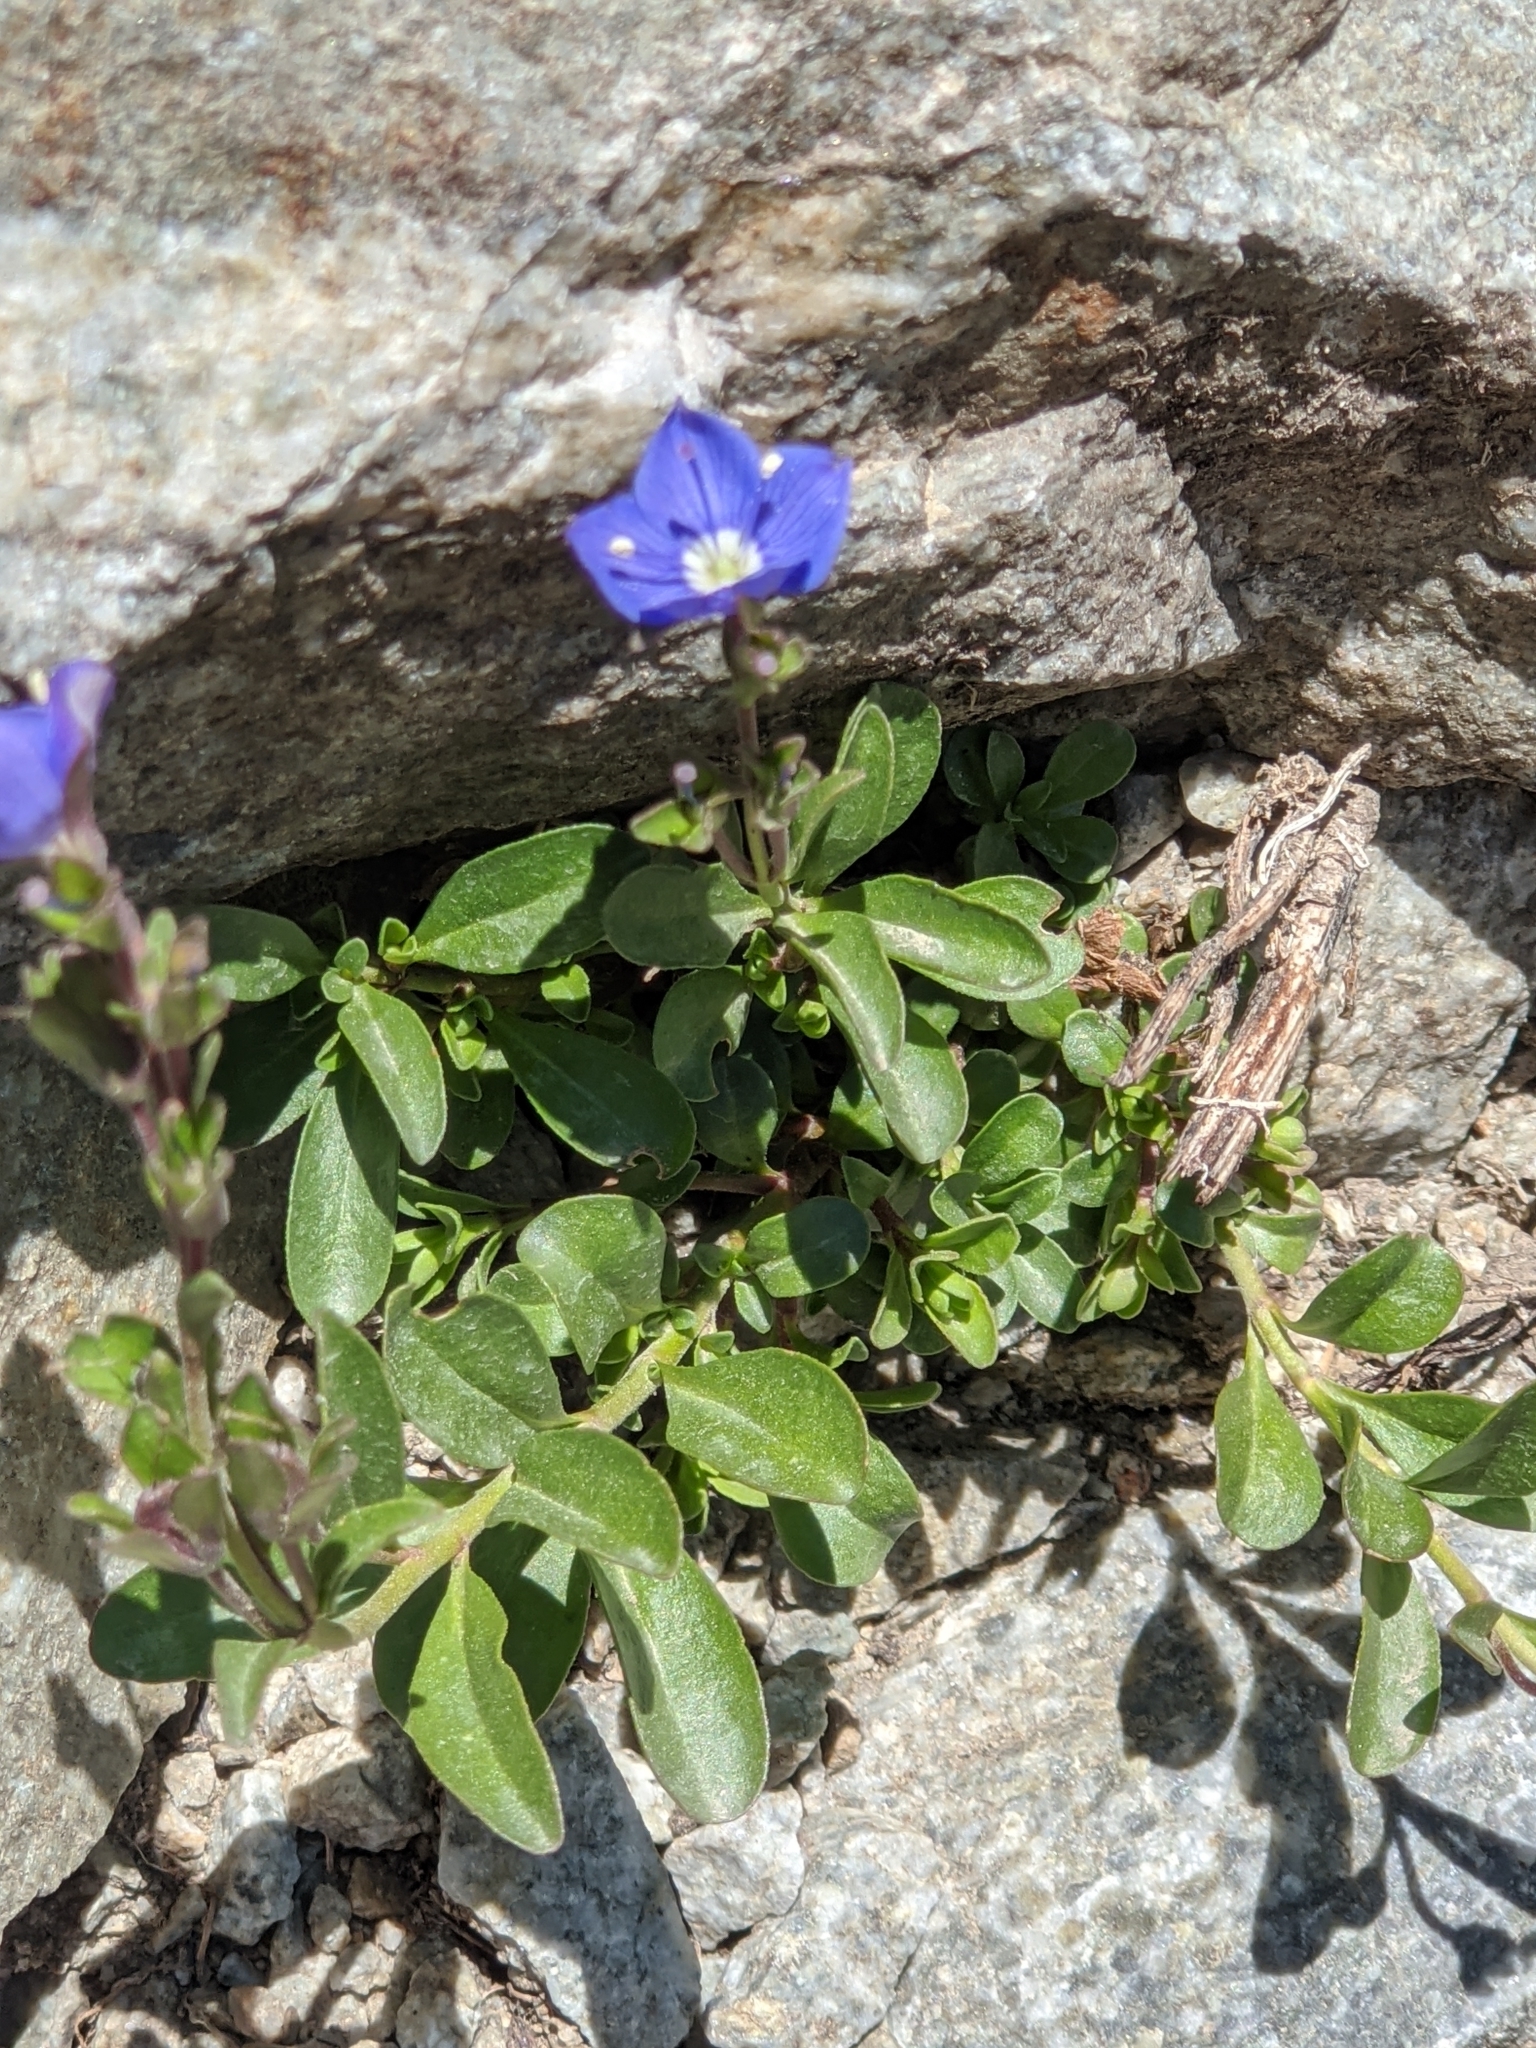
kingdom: Plantae
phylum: Tracheophyta
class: Magnoliopsida
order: Lamiales
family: Plantaginaceae
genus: Veronica
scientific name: Veronica fruticans
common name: Rock speedwell
